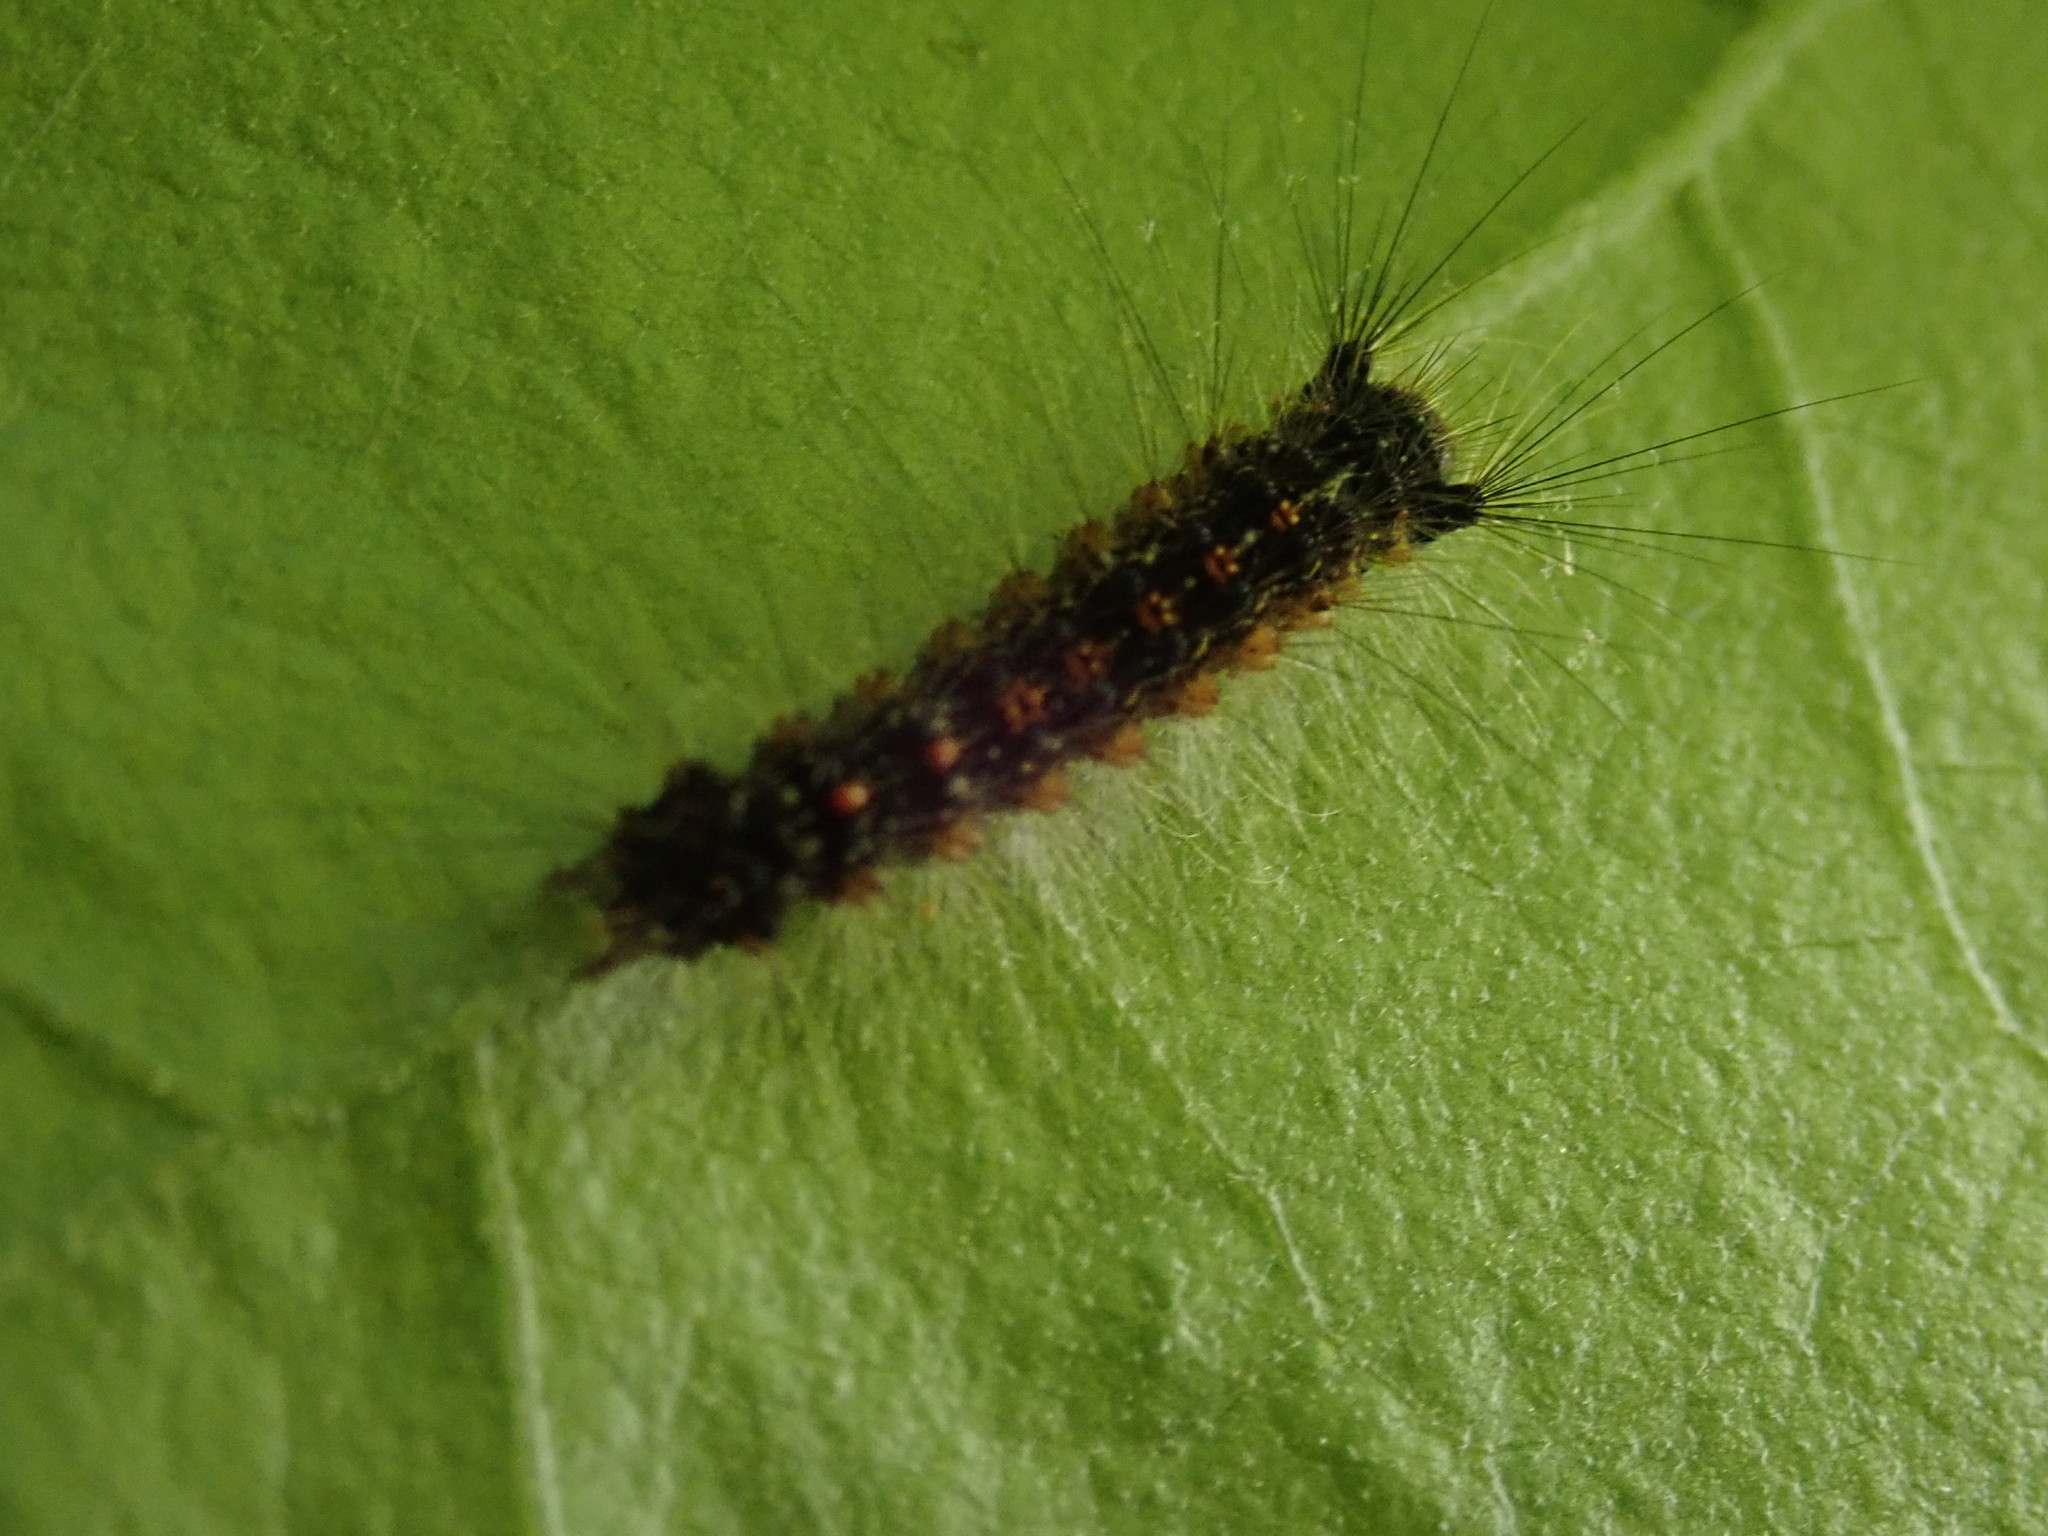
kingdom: Animalia
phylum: Arthropoda
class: Insecta
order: Lepidoptera
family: Erebidae
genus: Lymantria
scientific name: Lymantria dispar
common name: Gypsy moth
